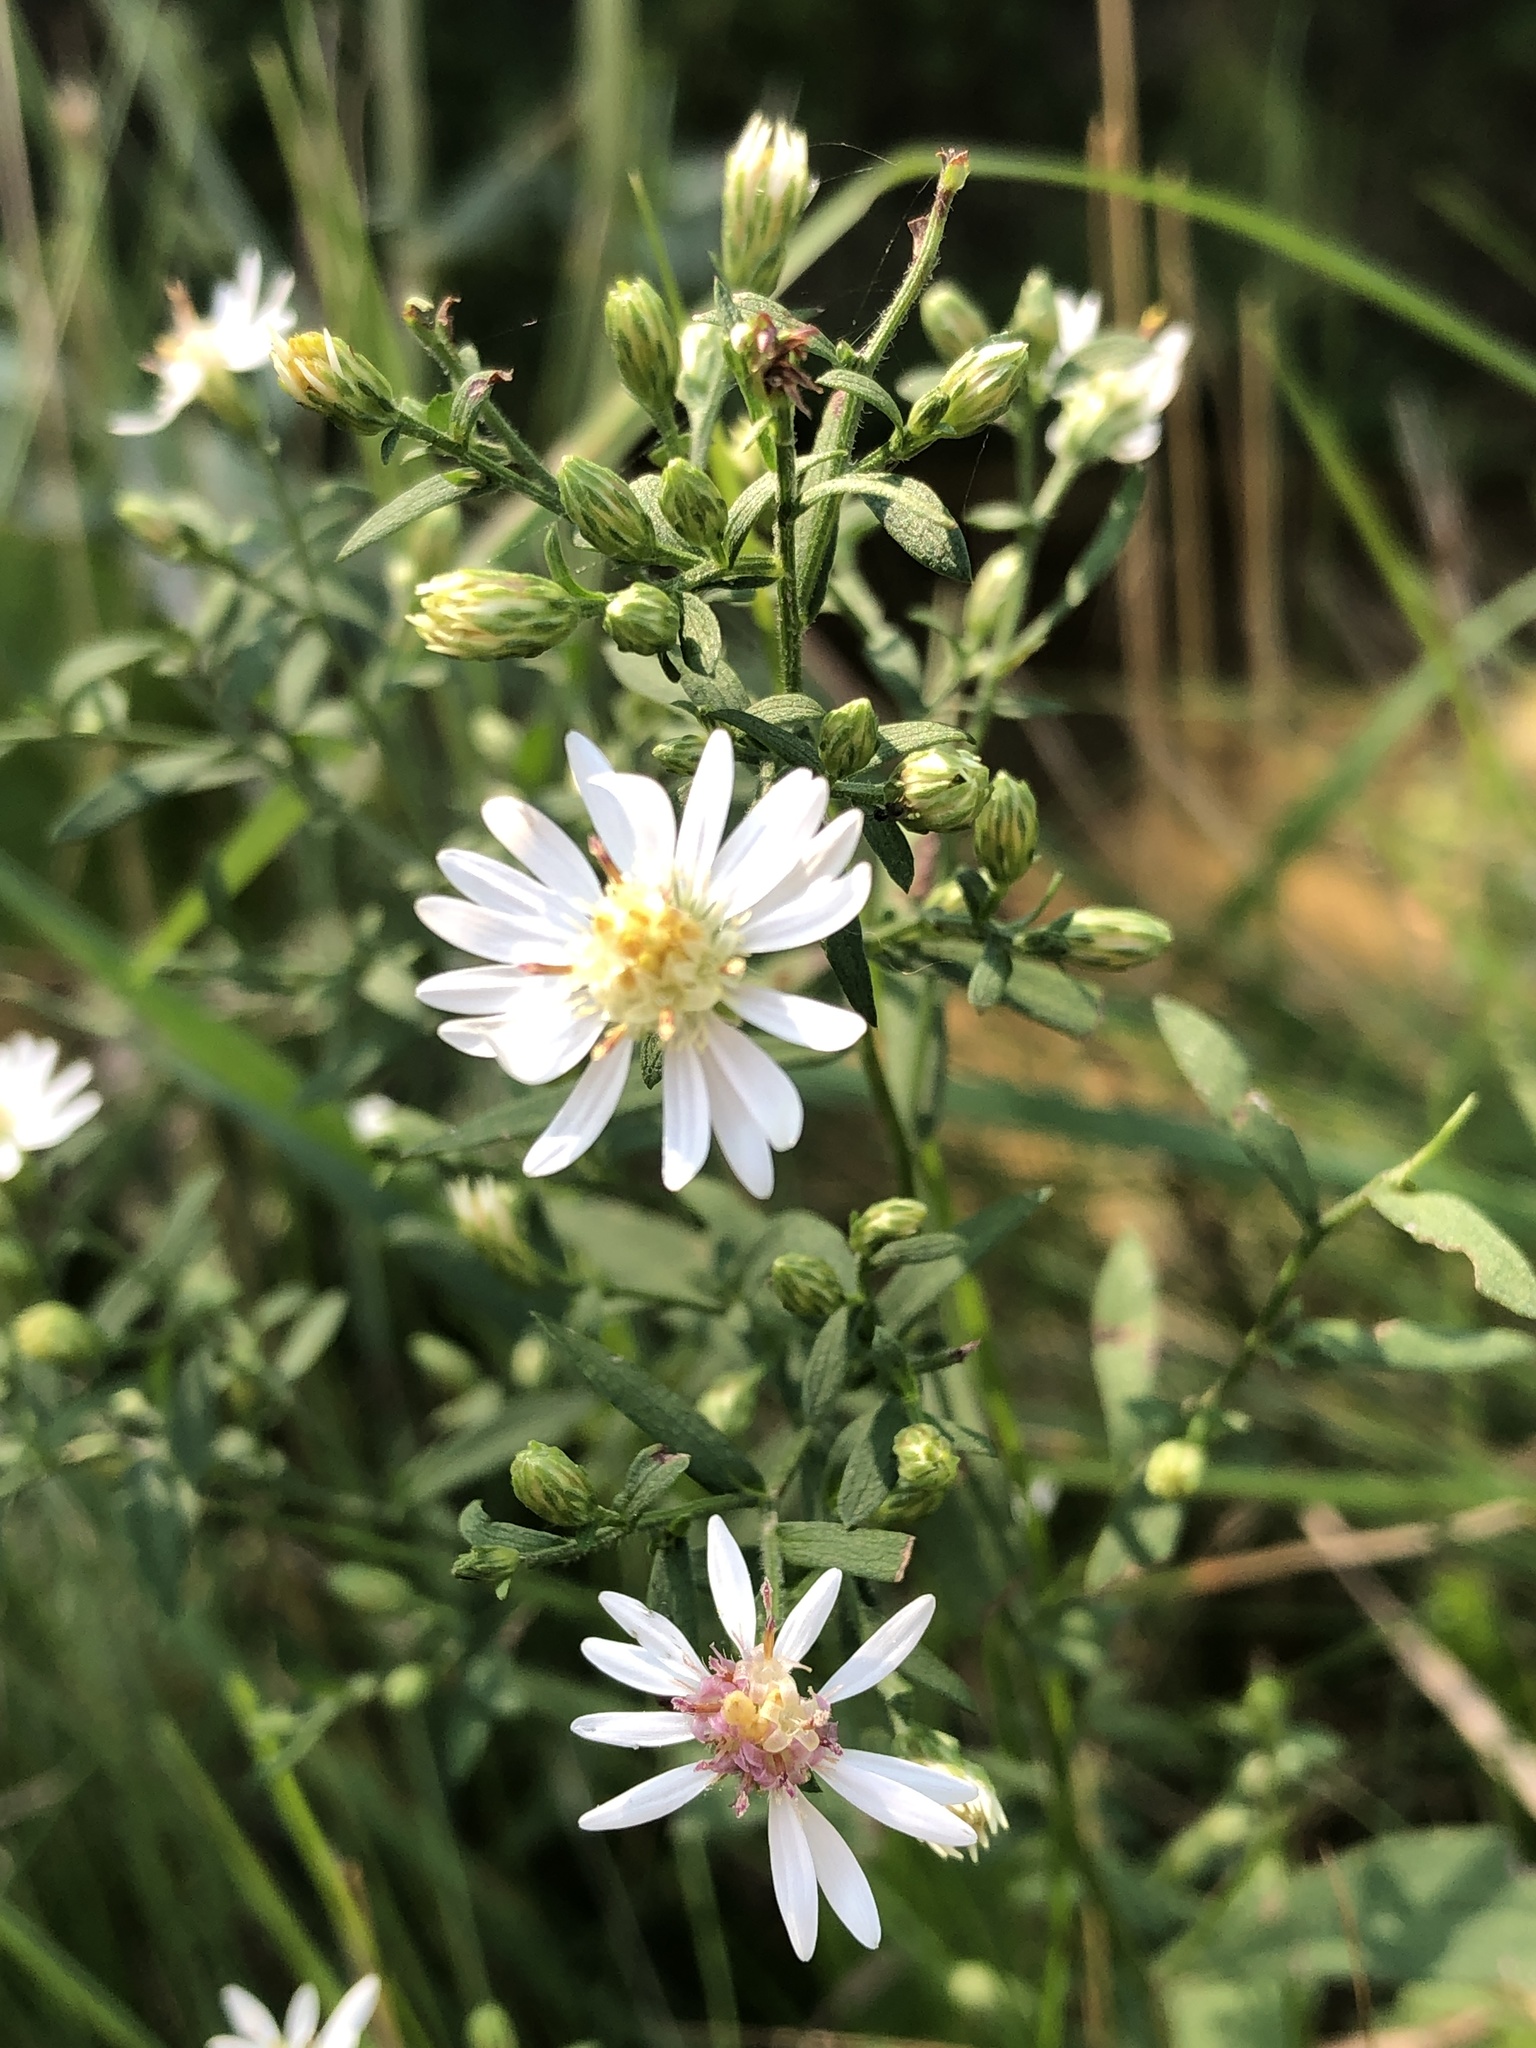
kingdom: Plantae
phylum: Tracheophyta
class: Magnoliopsida
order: Asterales
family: Asteraceae
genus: Symphyotrichum
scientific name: Symphyotrichum lateriflorum
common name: Calico aster
